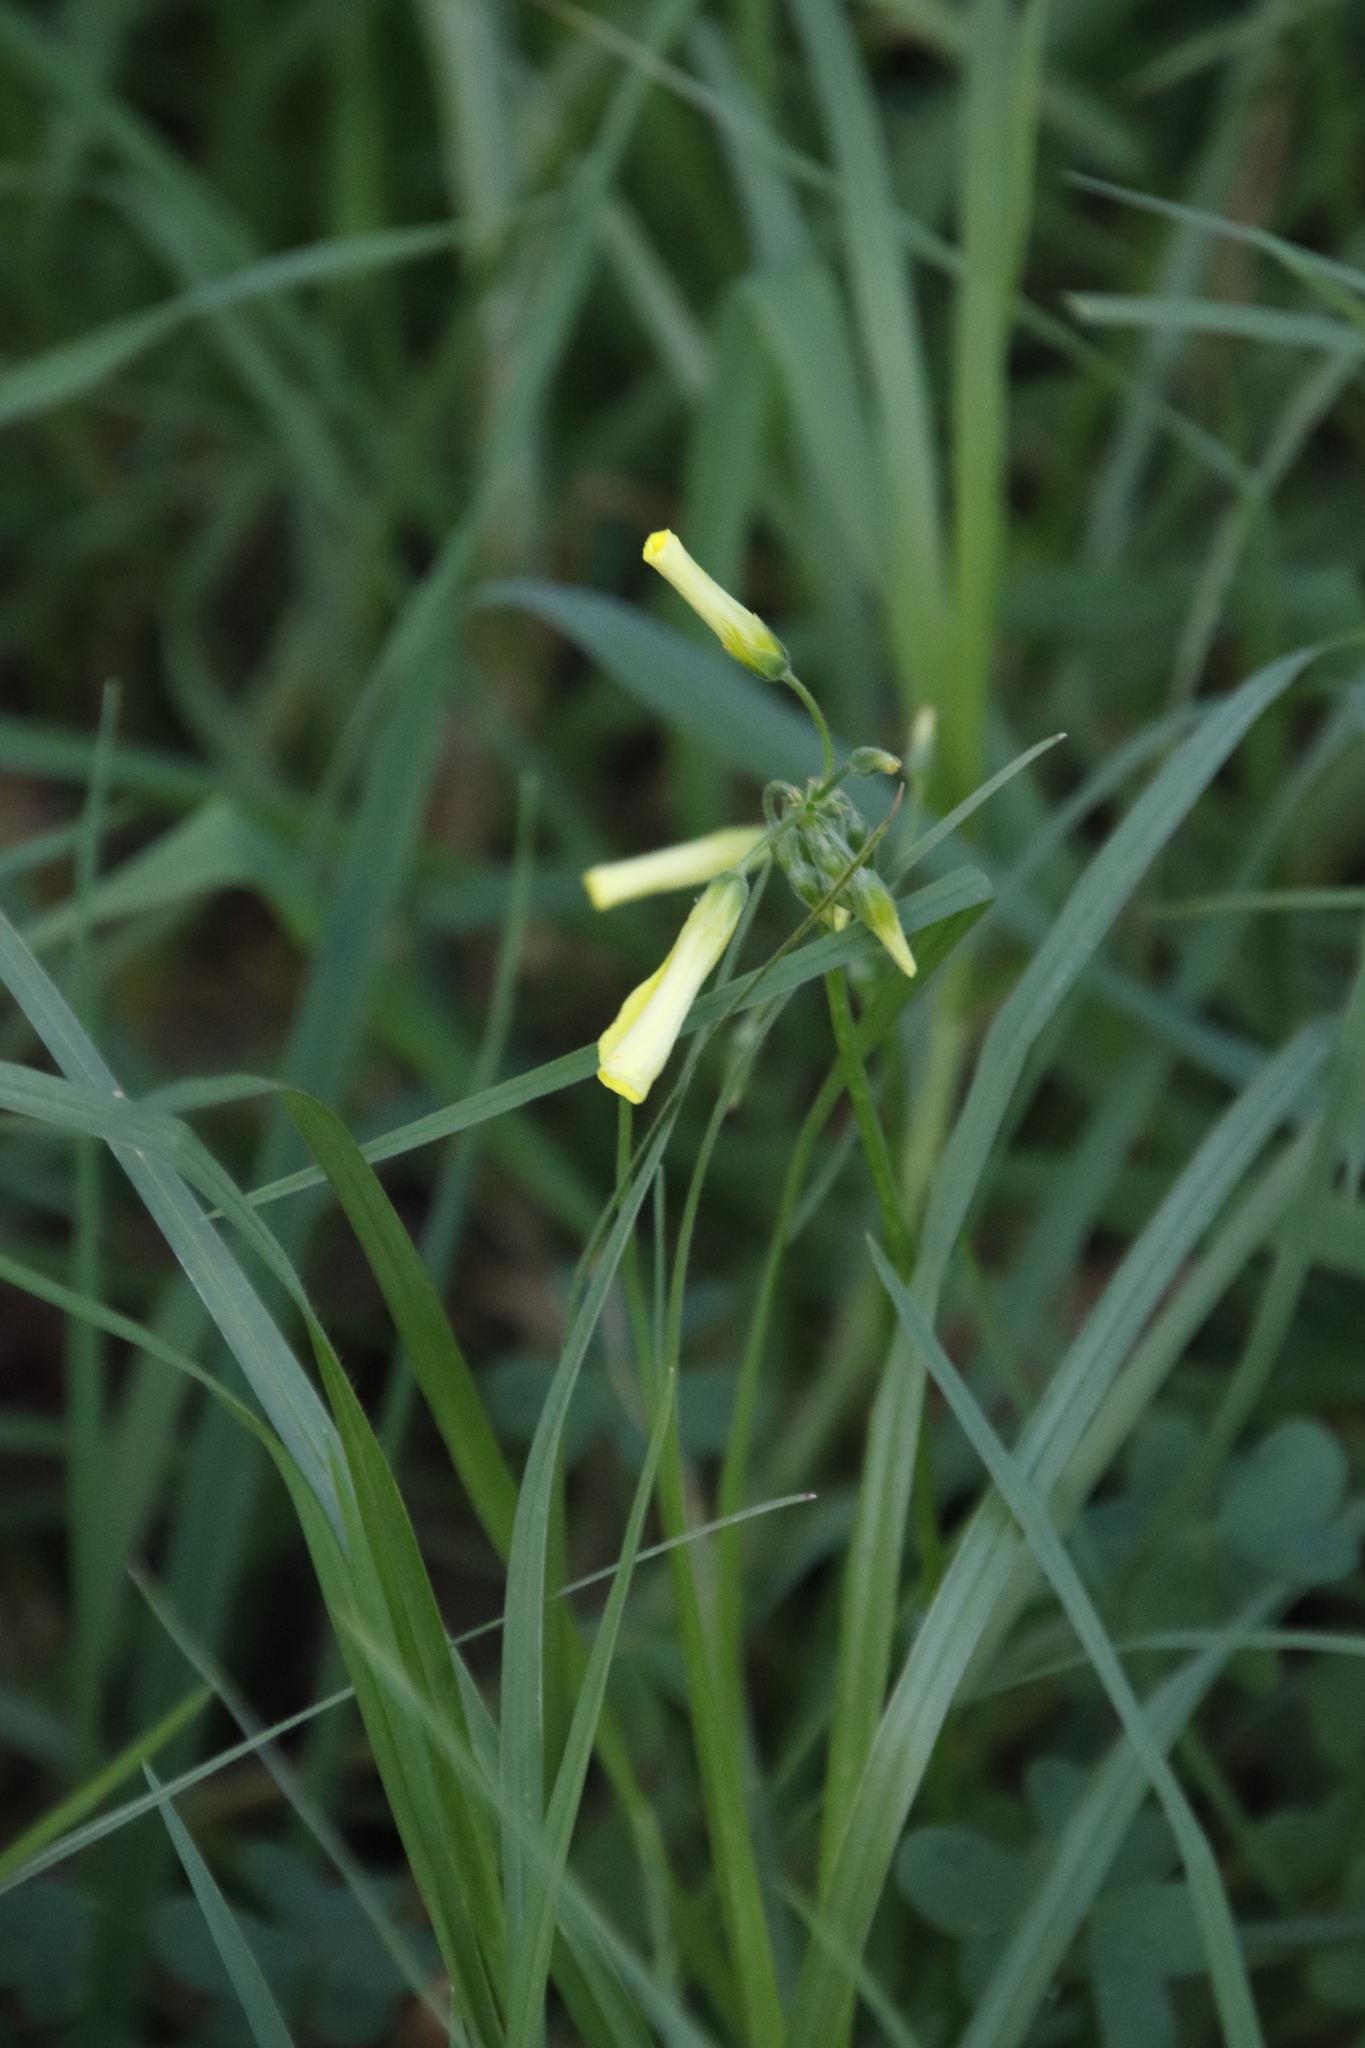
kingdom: Plantae
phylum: Tracheophyta
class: Magnoliopsida
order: Oxalidales
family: Oxalidaceae
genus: Oxalis
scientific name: Oxalis pes-caprae
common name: Bermuda-buttercup
